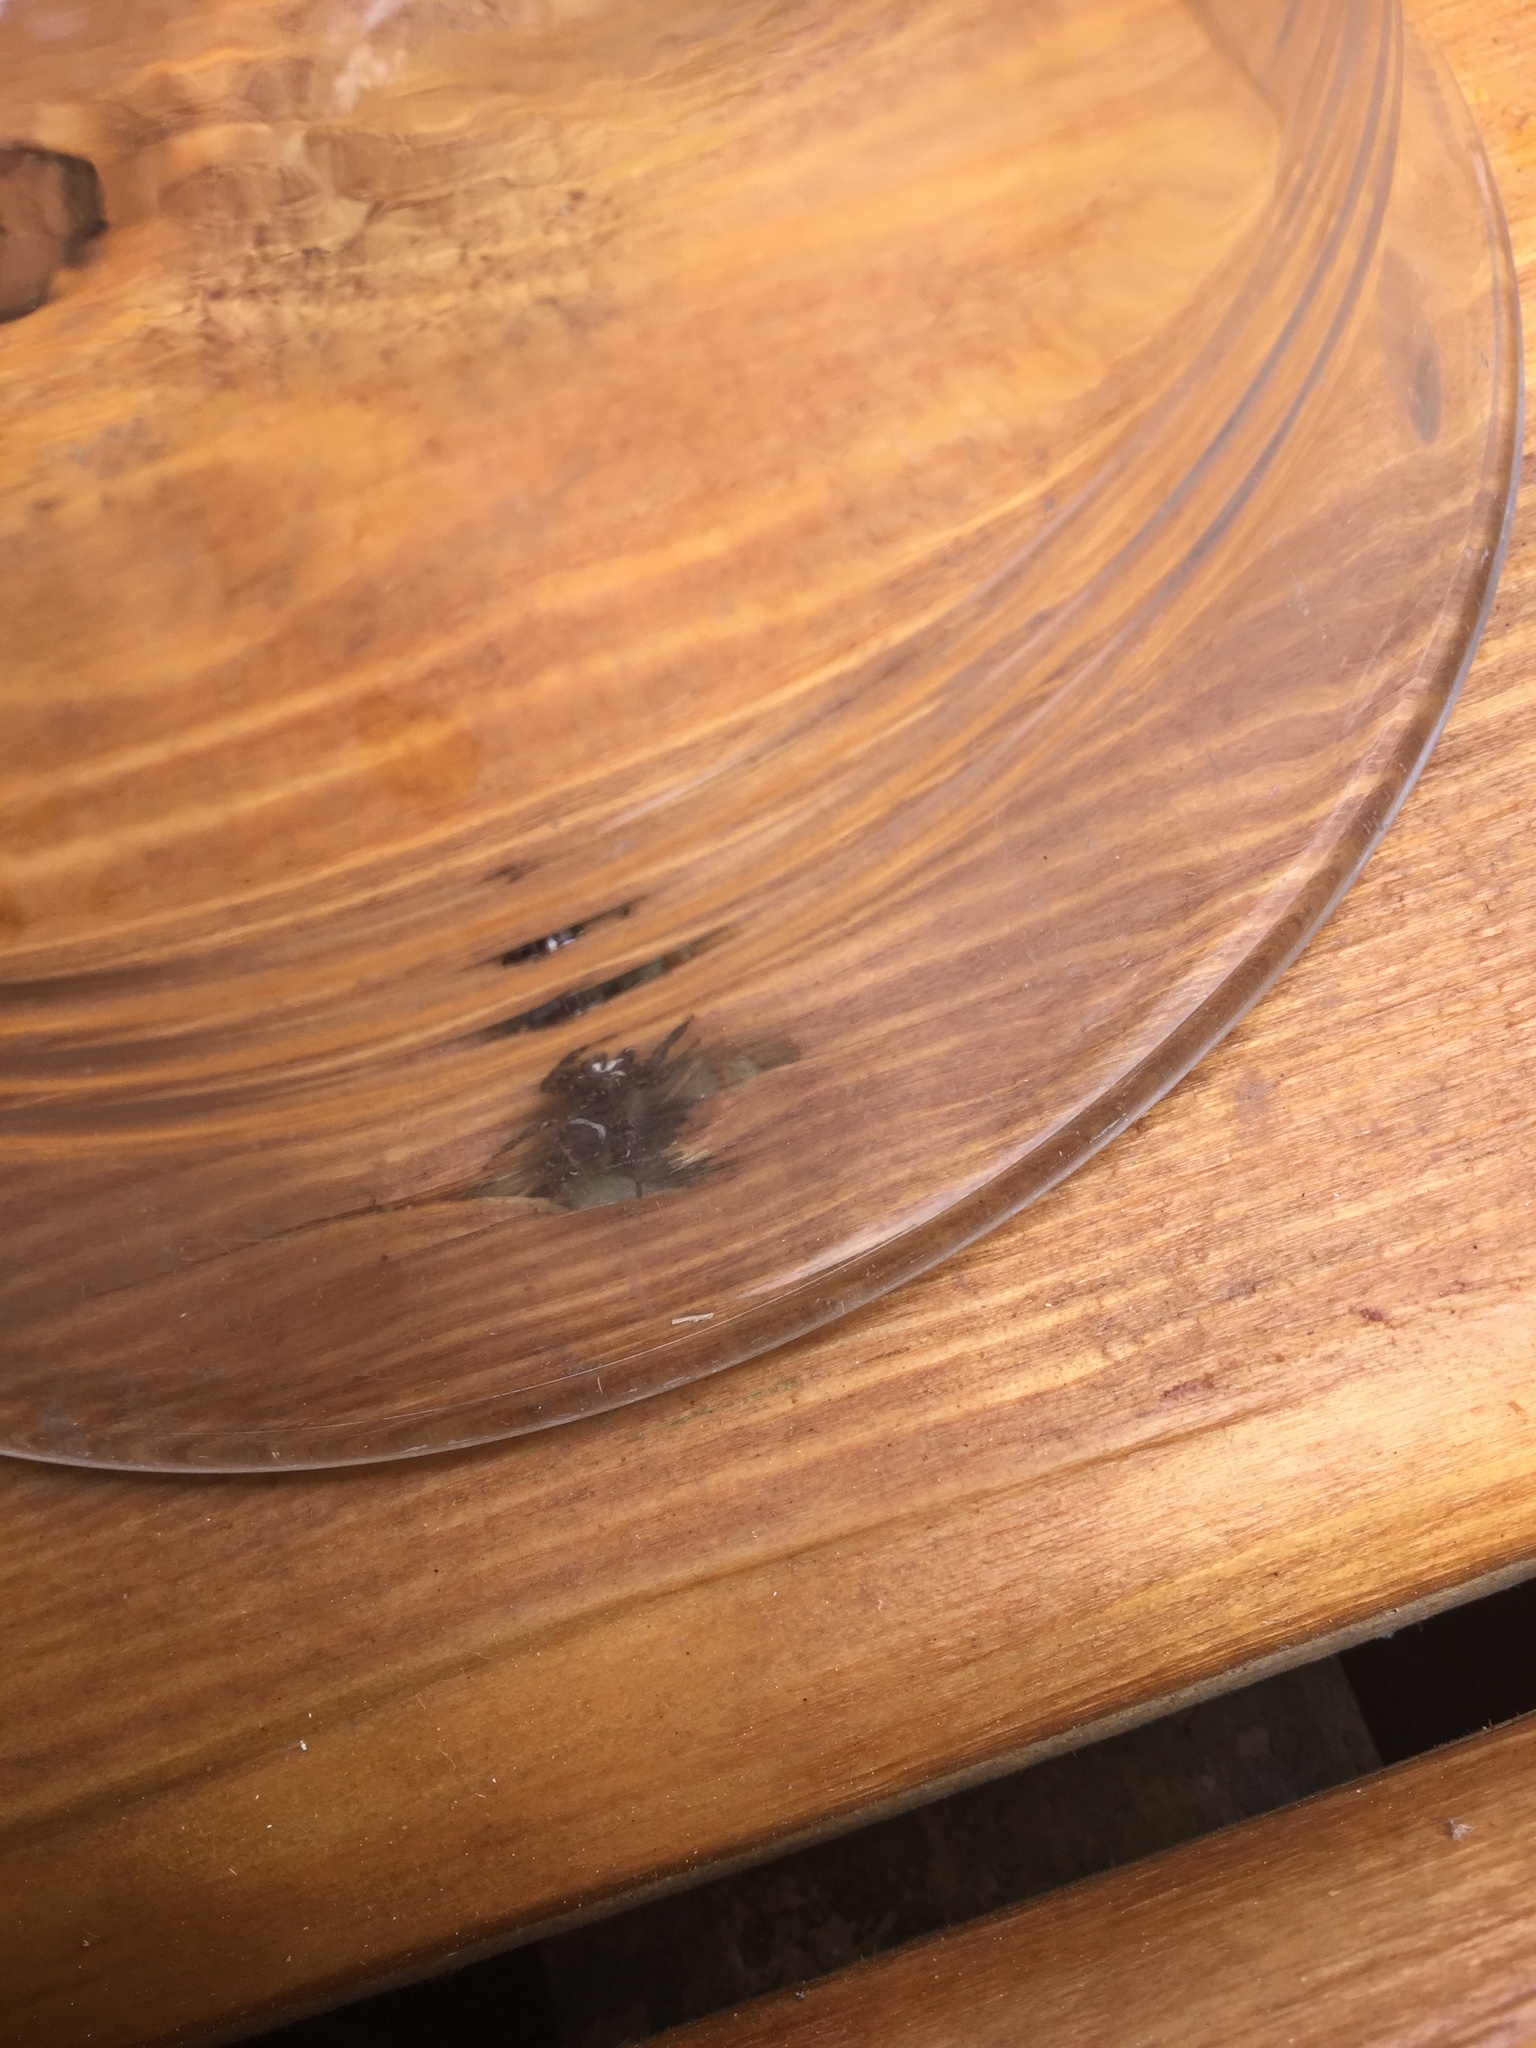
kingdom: Animalia
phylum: Arthropoda
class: Arachnida
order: Araneae
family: Salticidae
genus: Metaphidippus
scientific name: Metaphidippus manni
